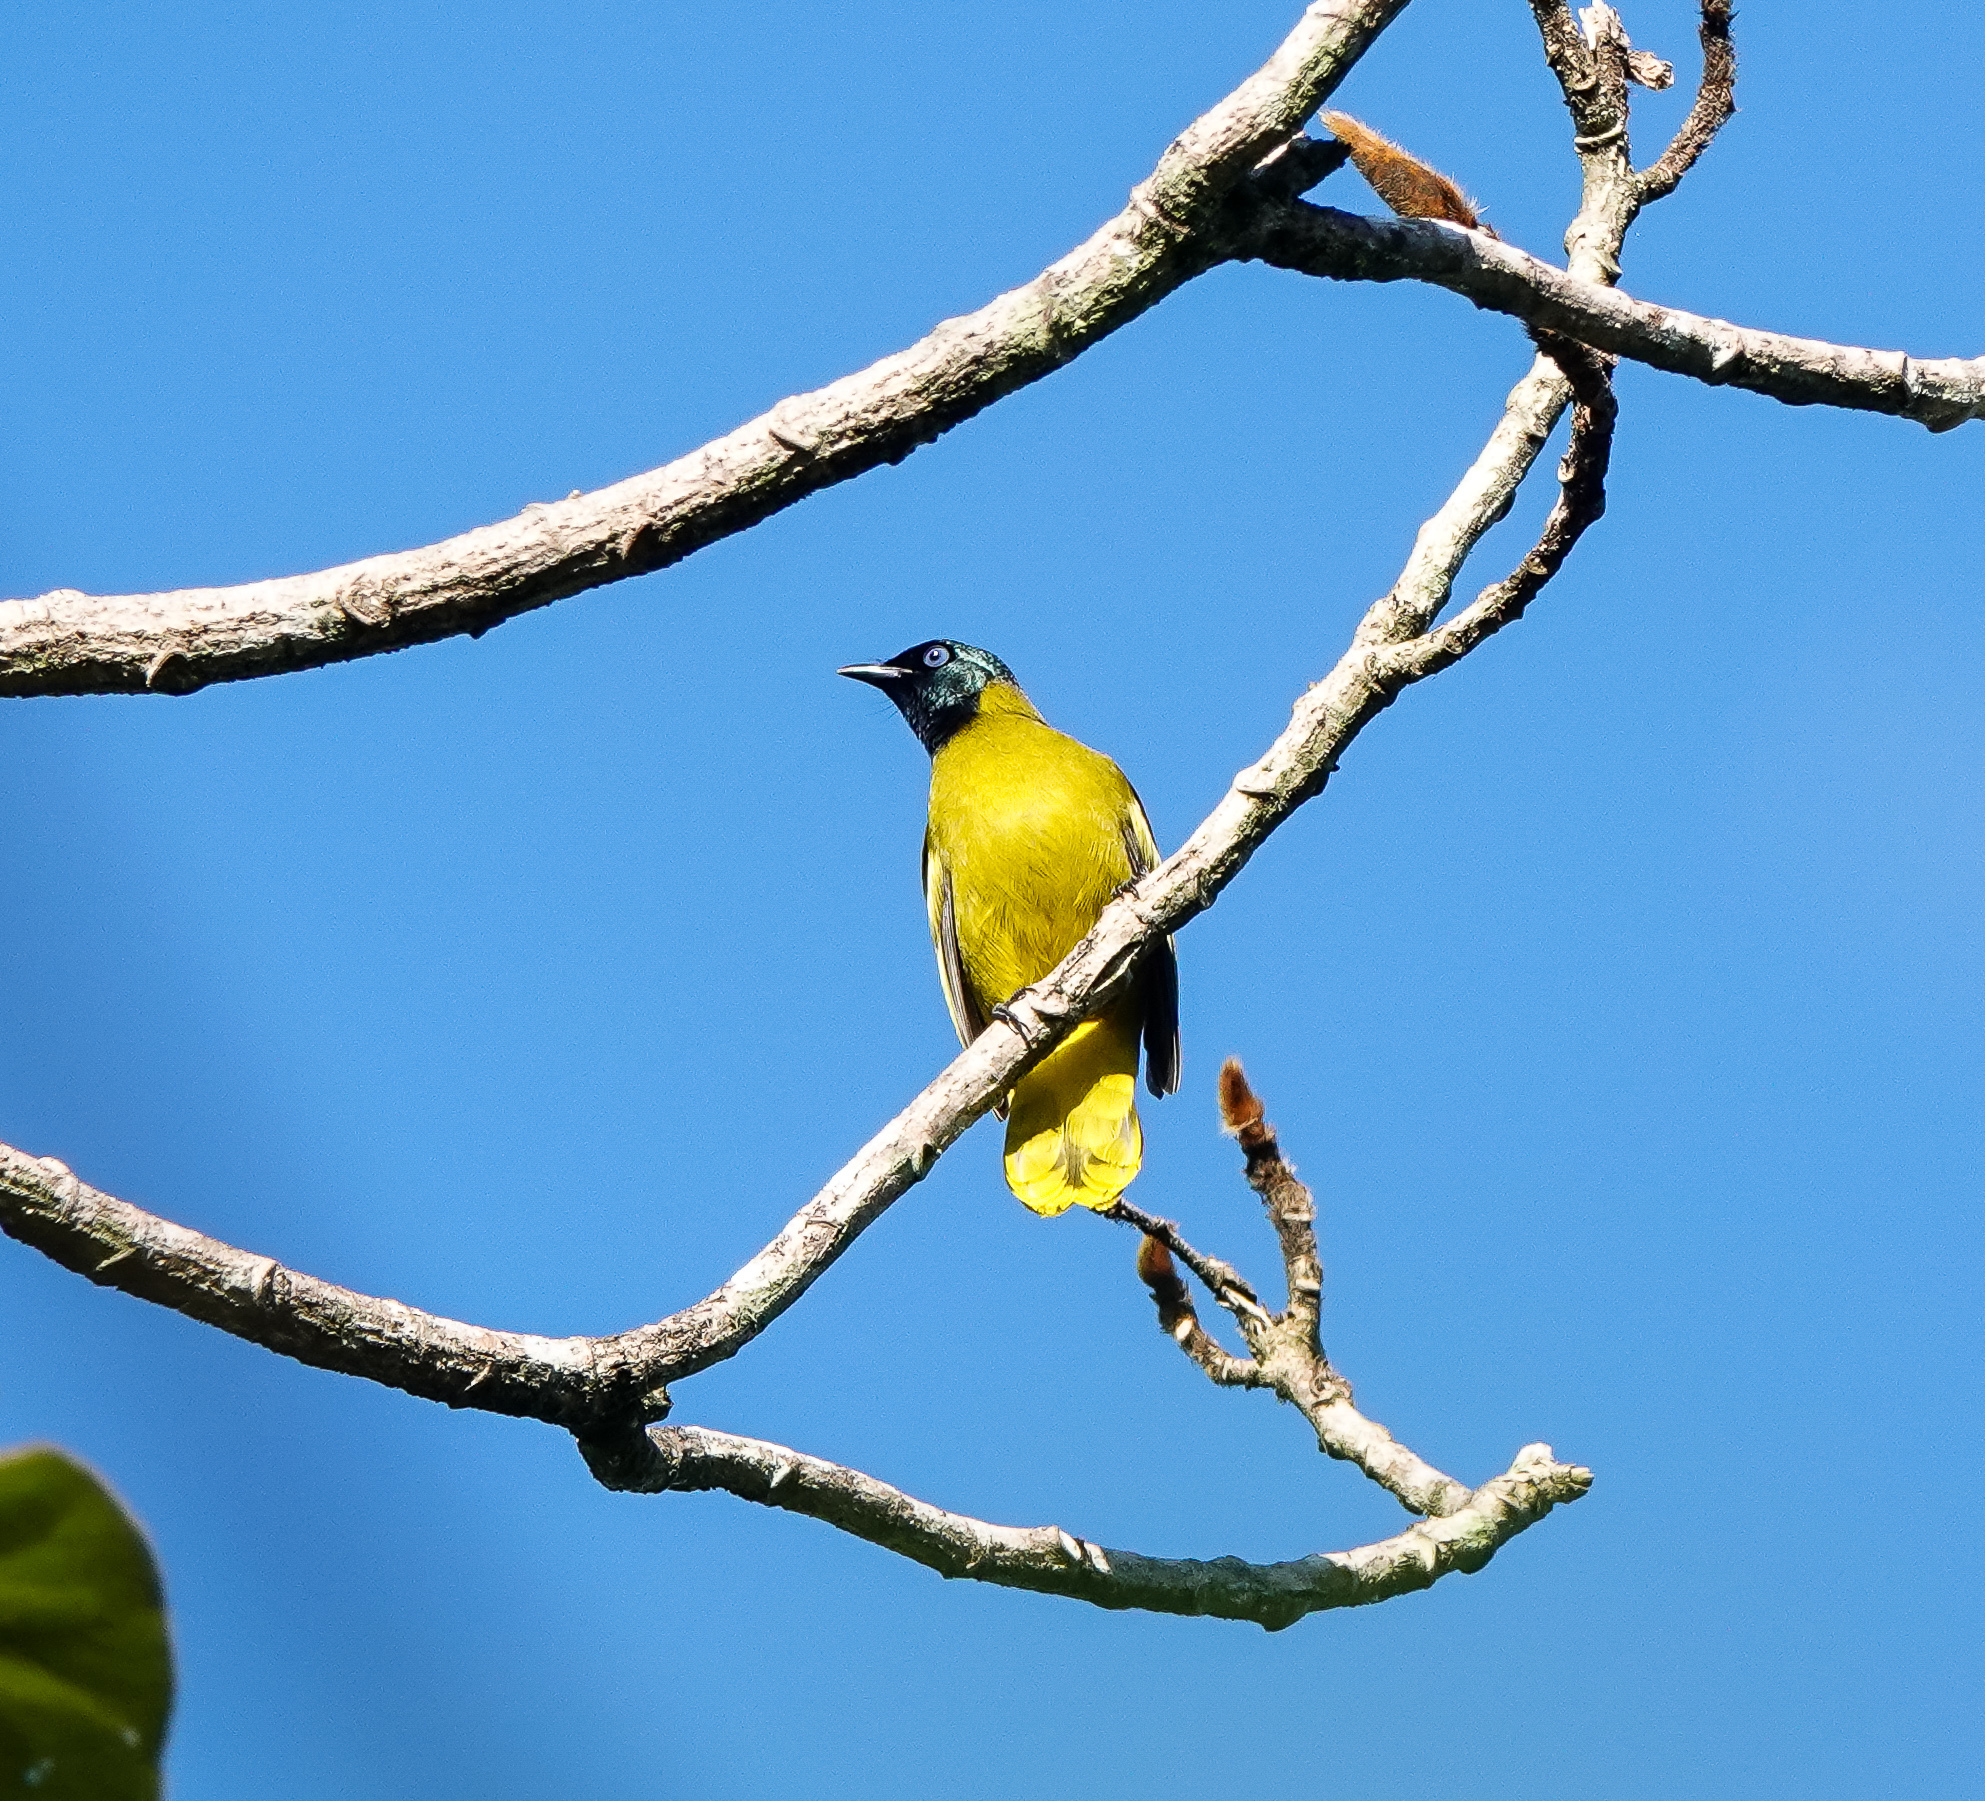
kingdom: Animalia
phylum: Chordata
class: Aves
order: Passeriformes
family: Pycnonotidae
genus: Microtarsus
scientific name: Microtarsus
